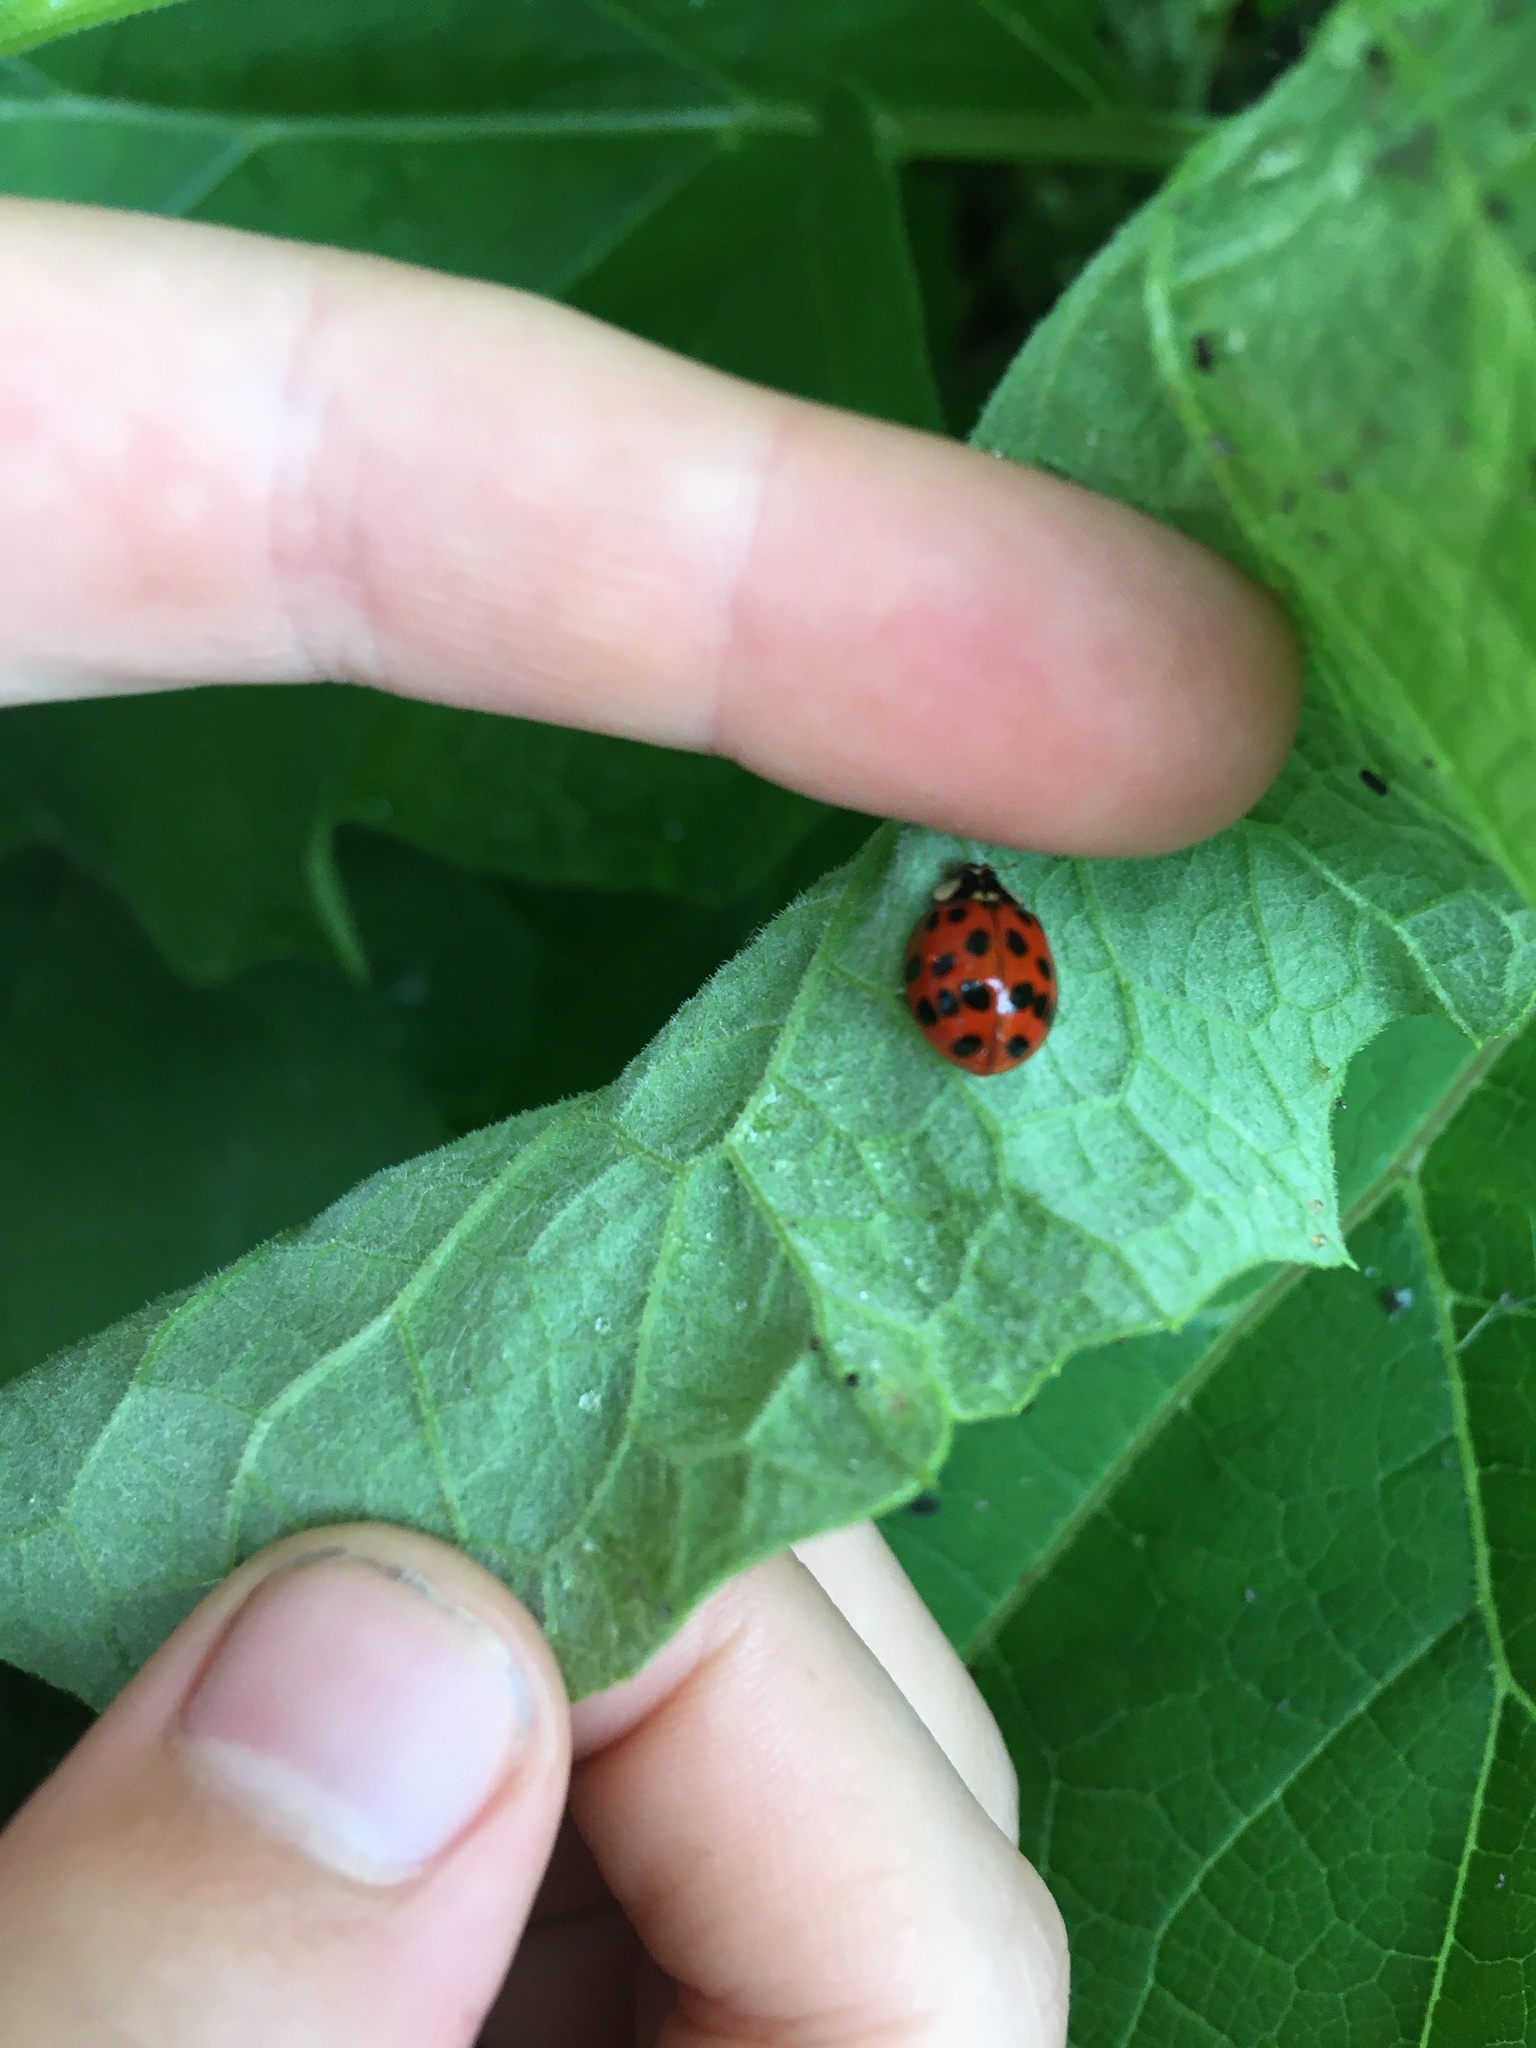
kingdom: Animalia
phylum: Arthropoda
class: Insecta
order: Coleoptera
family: Coccinellidae
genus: Harmonia
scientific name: Harmonia axyridis
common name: Harlequin ladybird
